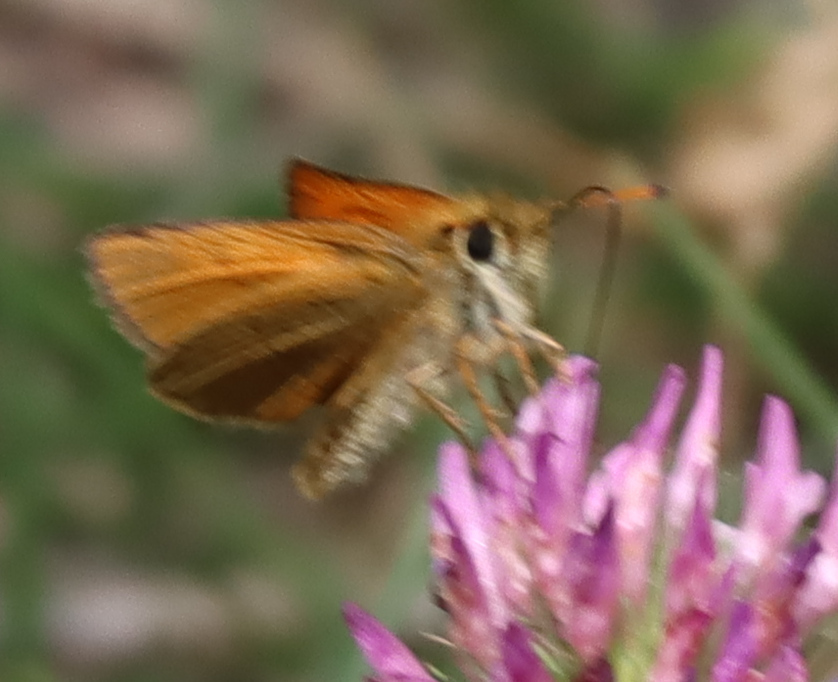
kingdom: Animalia
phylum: Arthropoda
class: Insecta
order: Lepidoptera
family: Hesperiidae
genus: Thymelicus
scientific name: Thymelicus lineola
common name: Essex skipper
